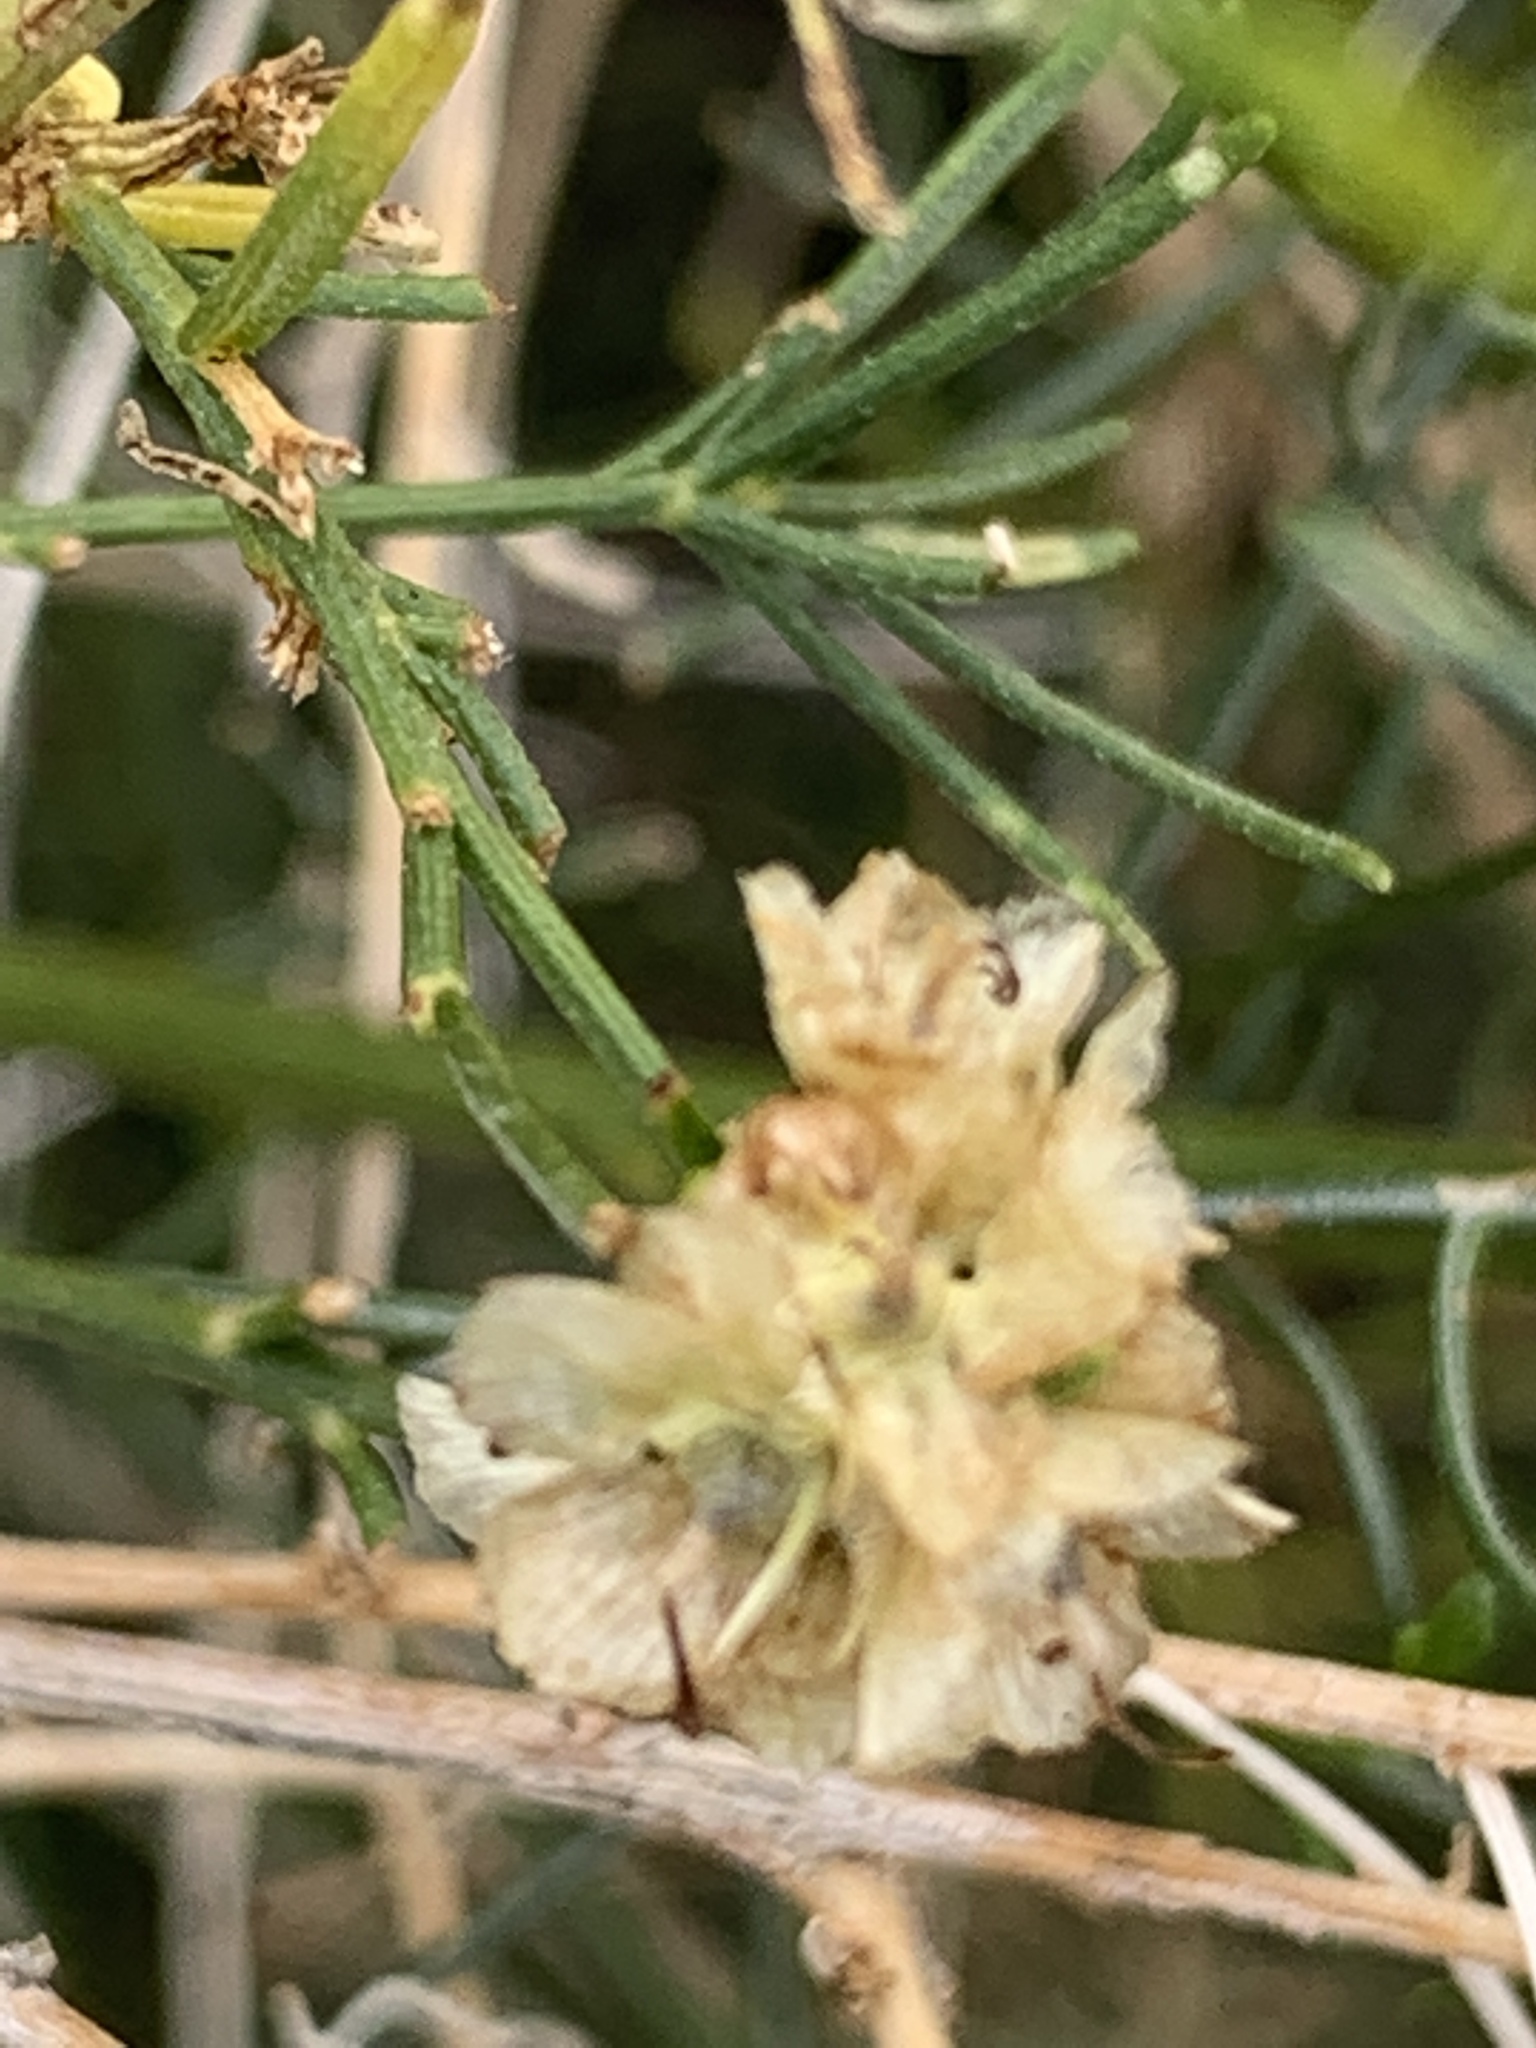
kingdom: Plantae
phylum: Tracheophyta
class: Magnoliopsida
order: Asterales
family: Asteraceae
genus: Ambrosia
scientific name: Ambrosia salsola
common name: Burrobrush
